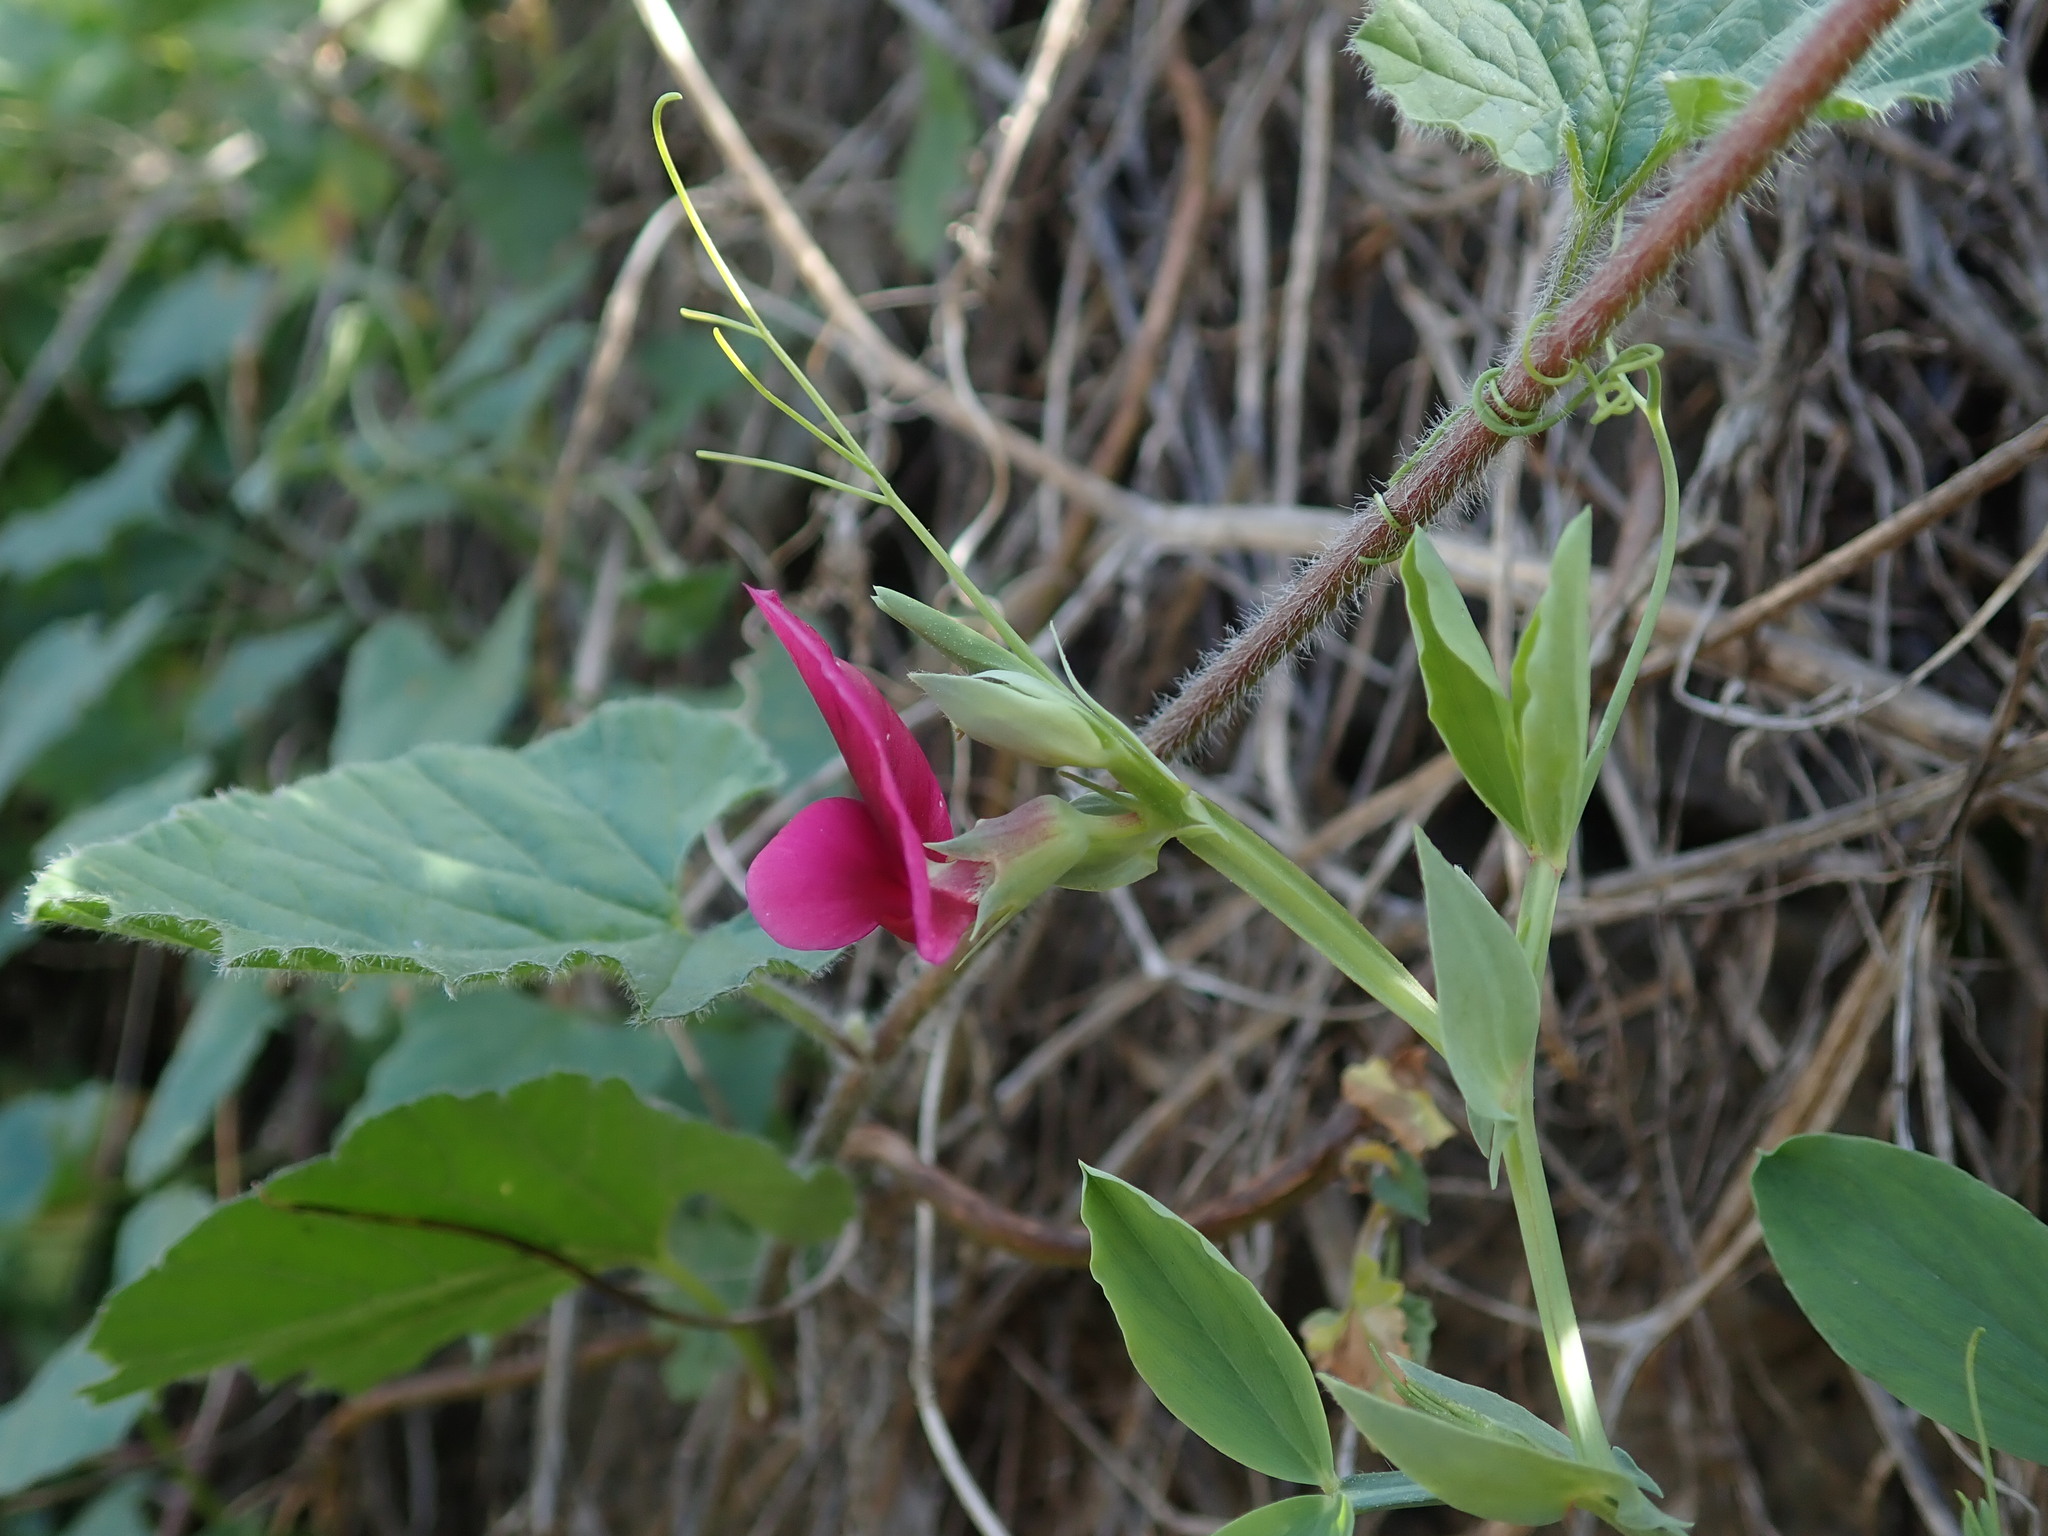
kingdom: Plantae
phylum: Tracheophyta
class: Magnoliopsida
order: Fabales
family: Fabaceae
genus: Lathyrus
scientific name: Lathyrus tingitanus
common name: Tangier pea
